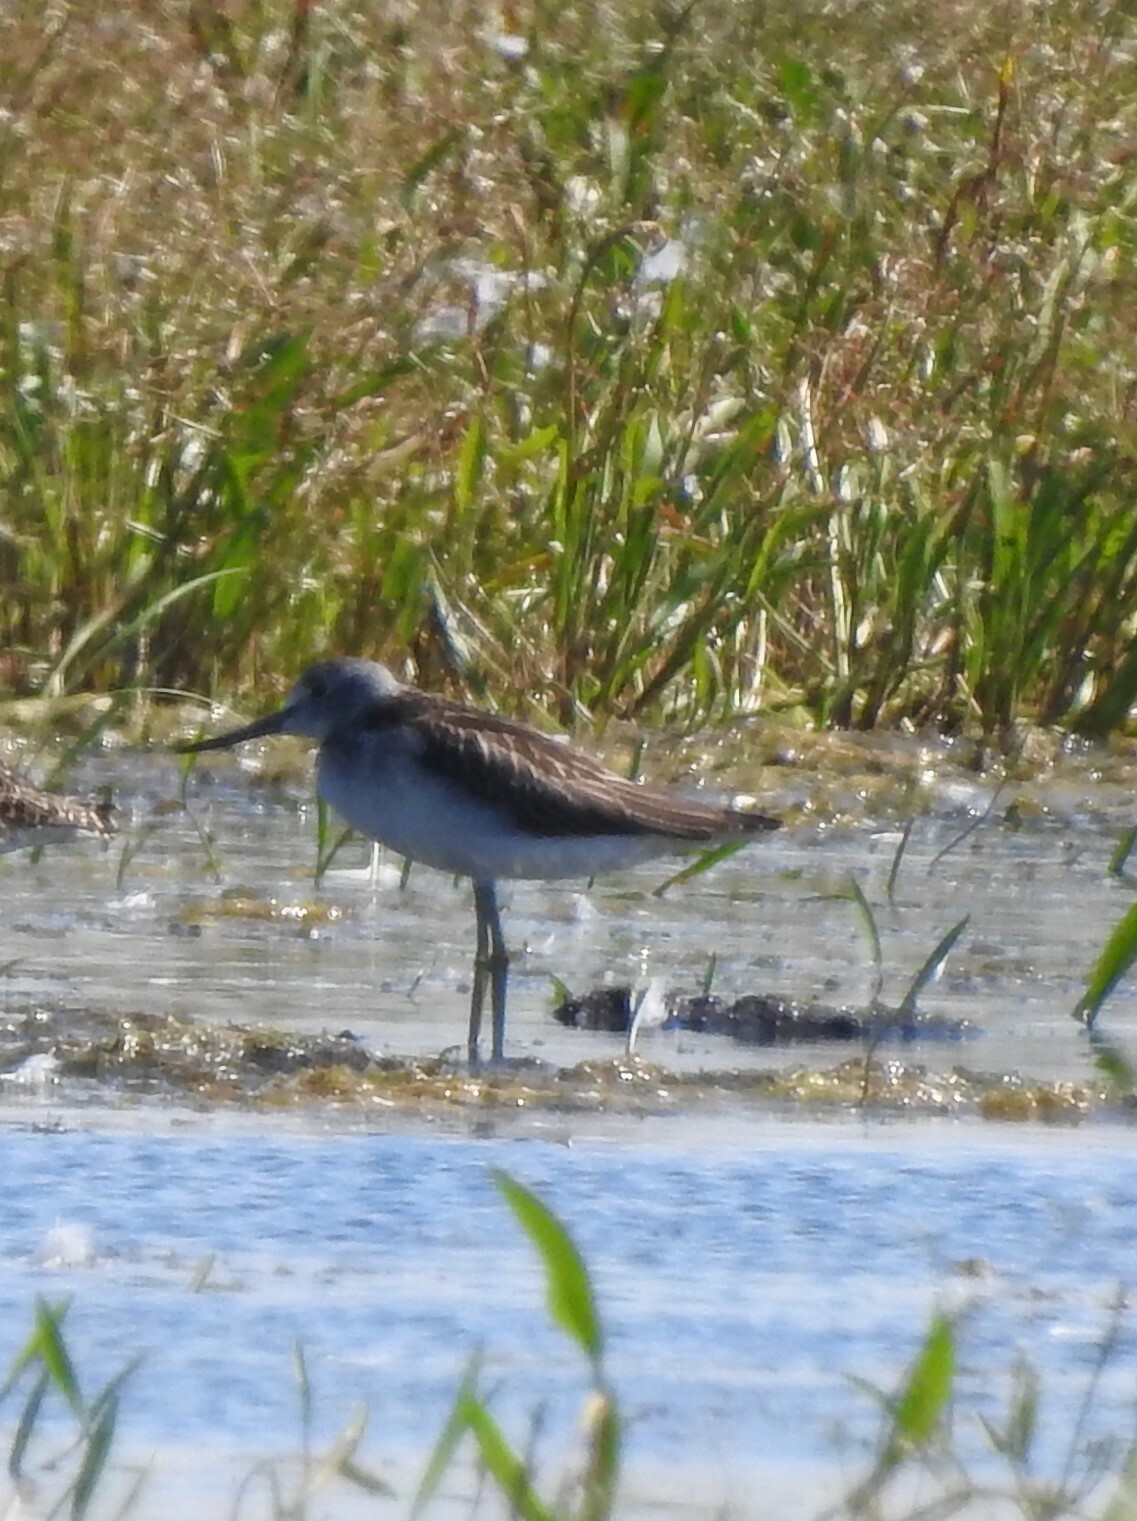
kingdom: Animalia
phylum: Chordata
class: Aves
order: Charadriiformes
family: Scolopacidae
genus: Tringa
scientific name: Tringa nebularia
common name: Common greenshank
